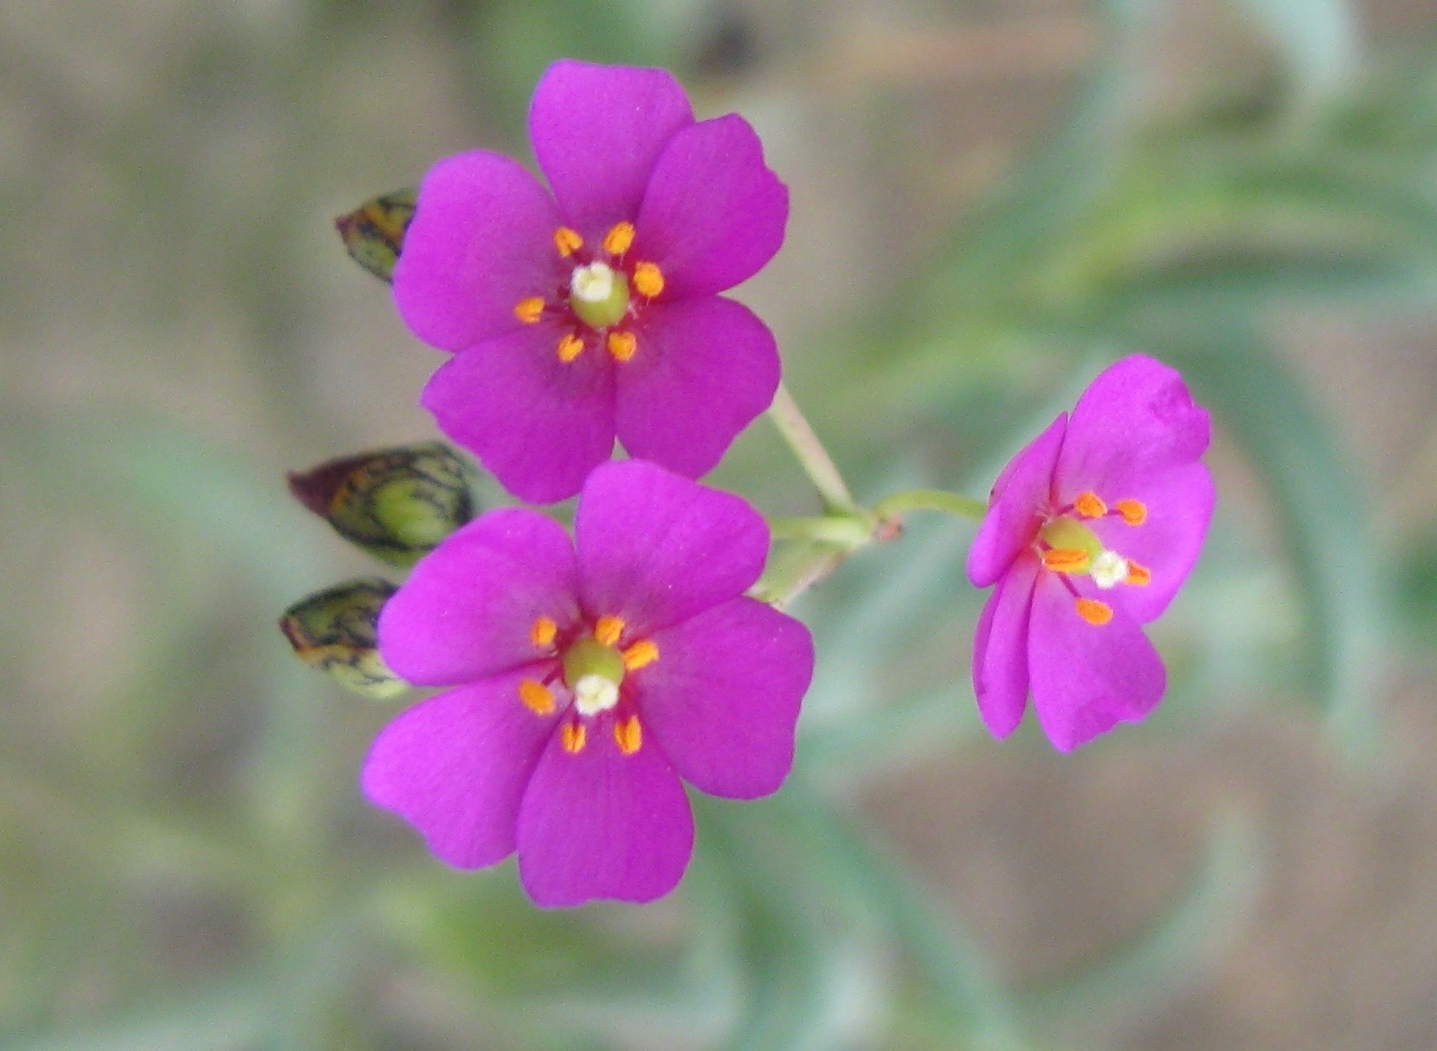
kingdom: Plantae
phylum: Tracheophyta
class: Magnoliopsida
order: Caryophyllales
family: Montiaceae
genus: Cistanthe
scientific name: Cistanthe lingulata
